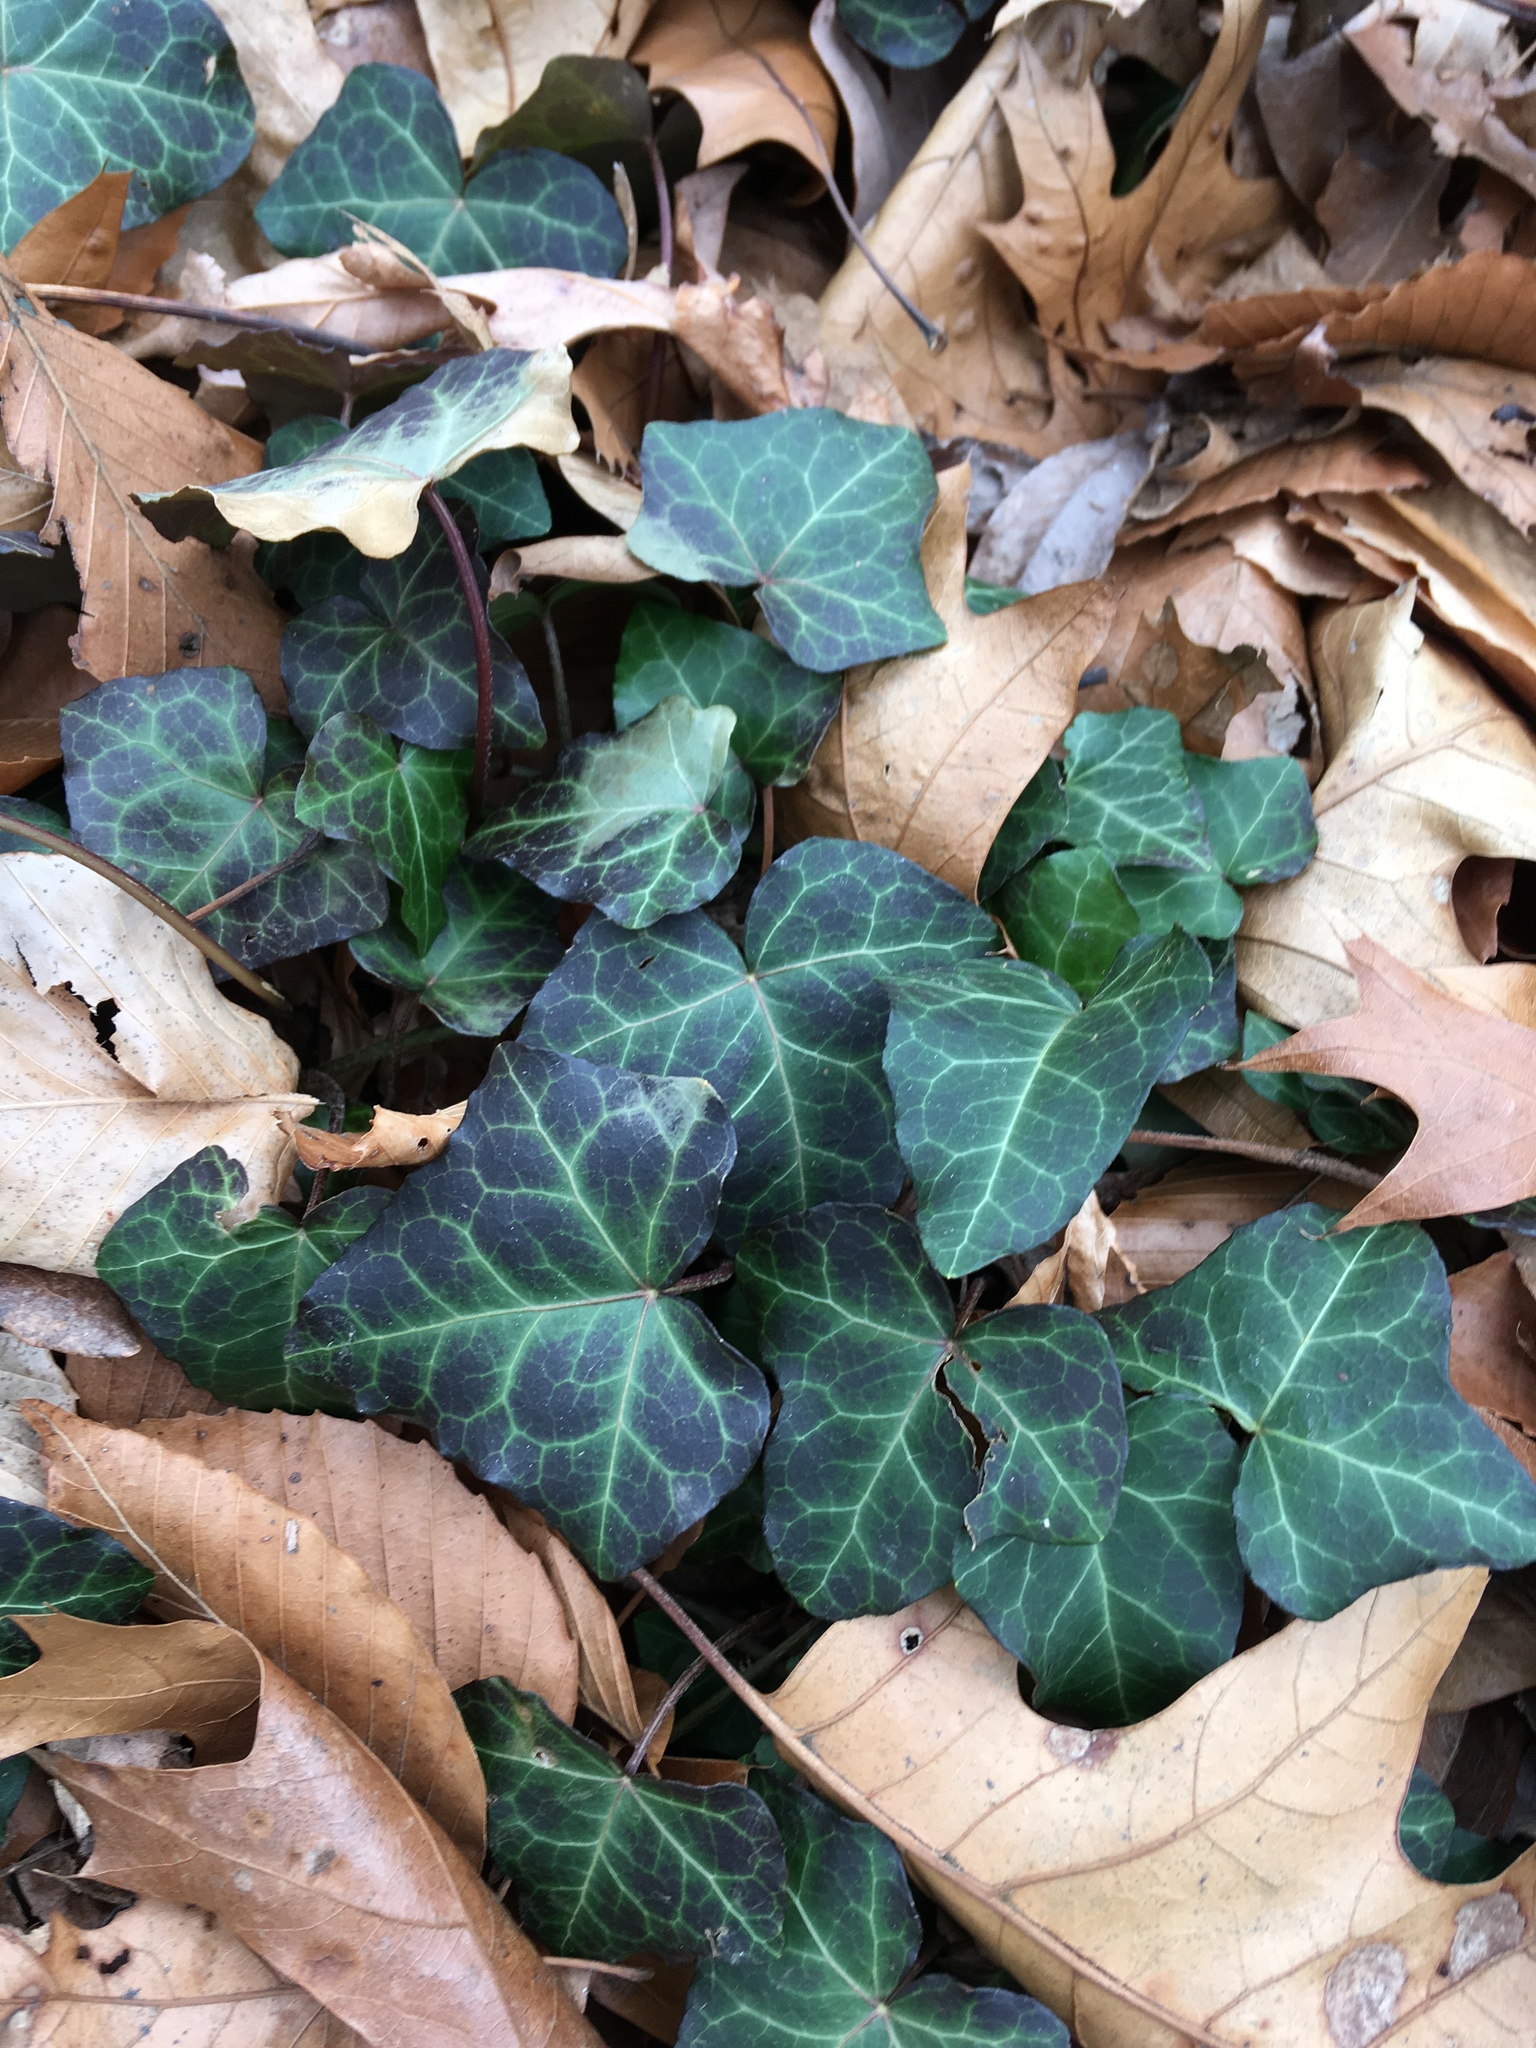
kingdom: Plantae
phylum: Tracheophyta
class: Magnoliopsida
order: Apiales
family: Araliaceae
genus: Hedera
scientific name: Hedera helix
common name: Ivy
